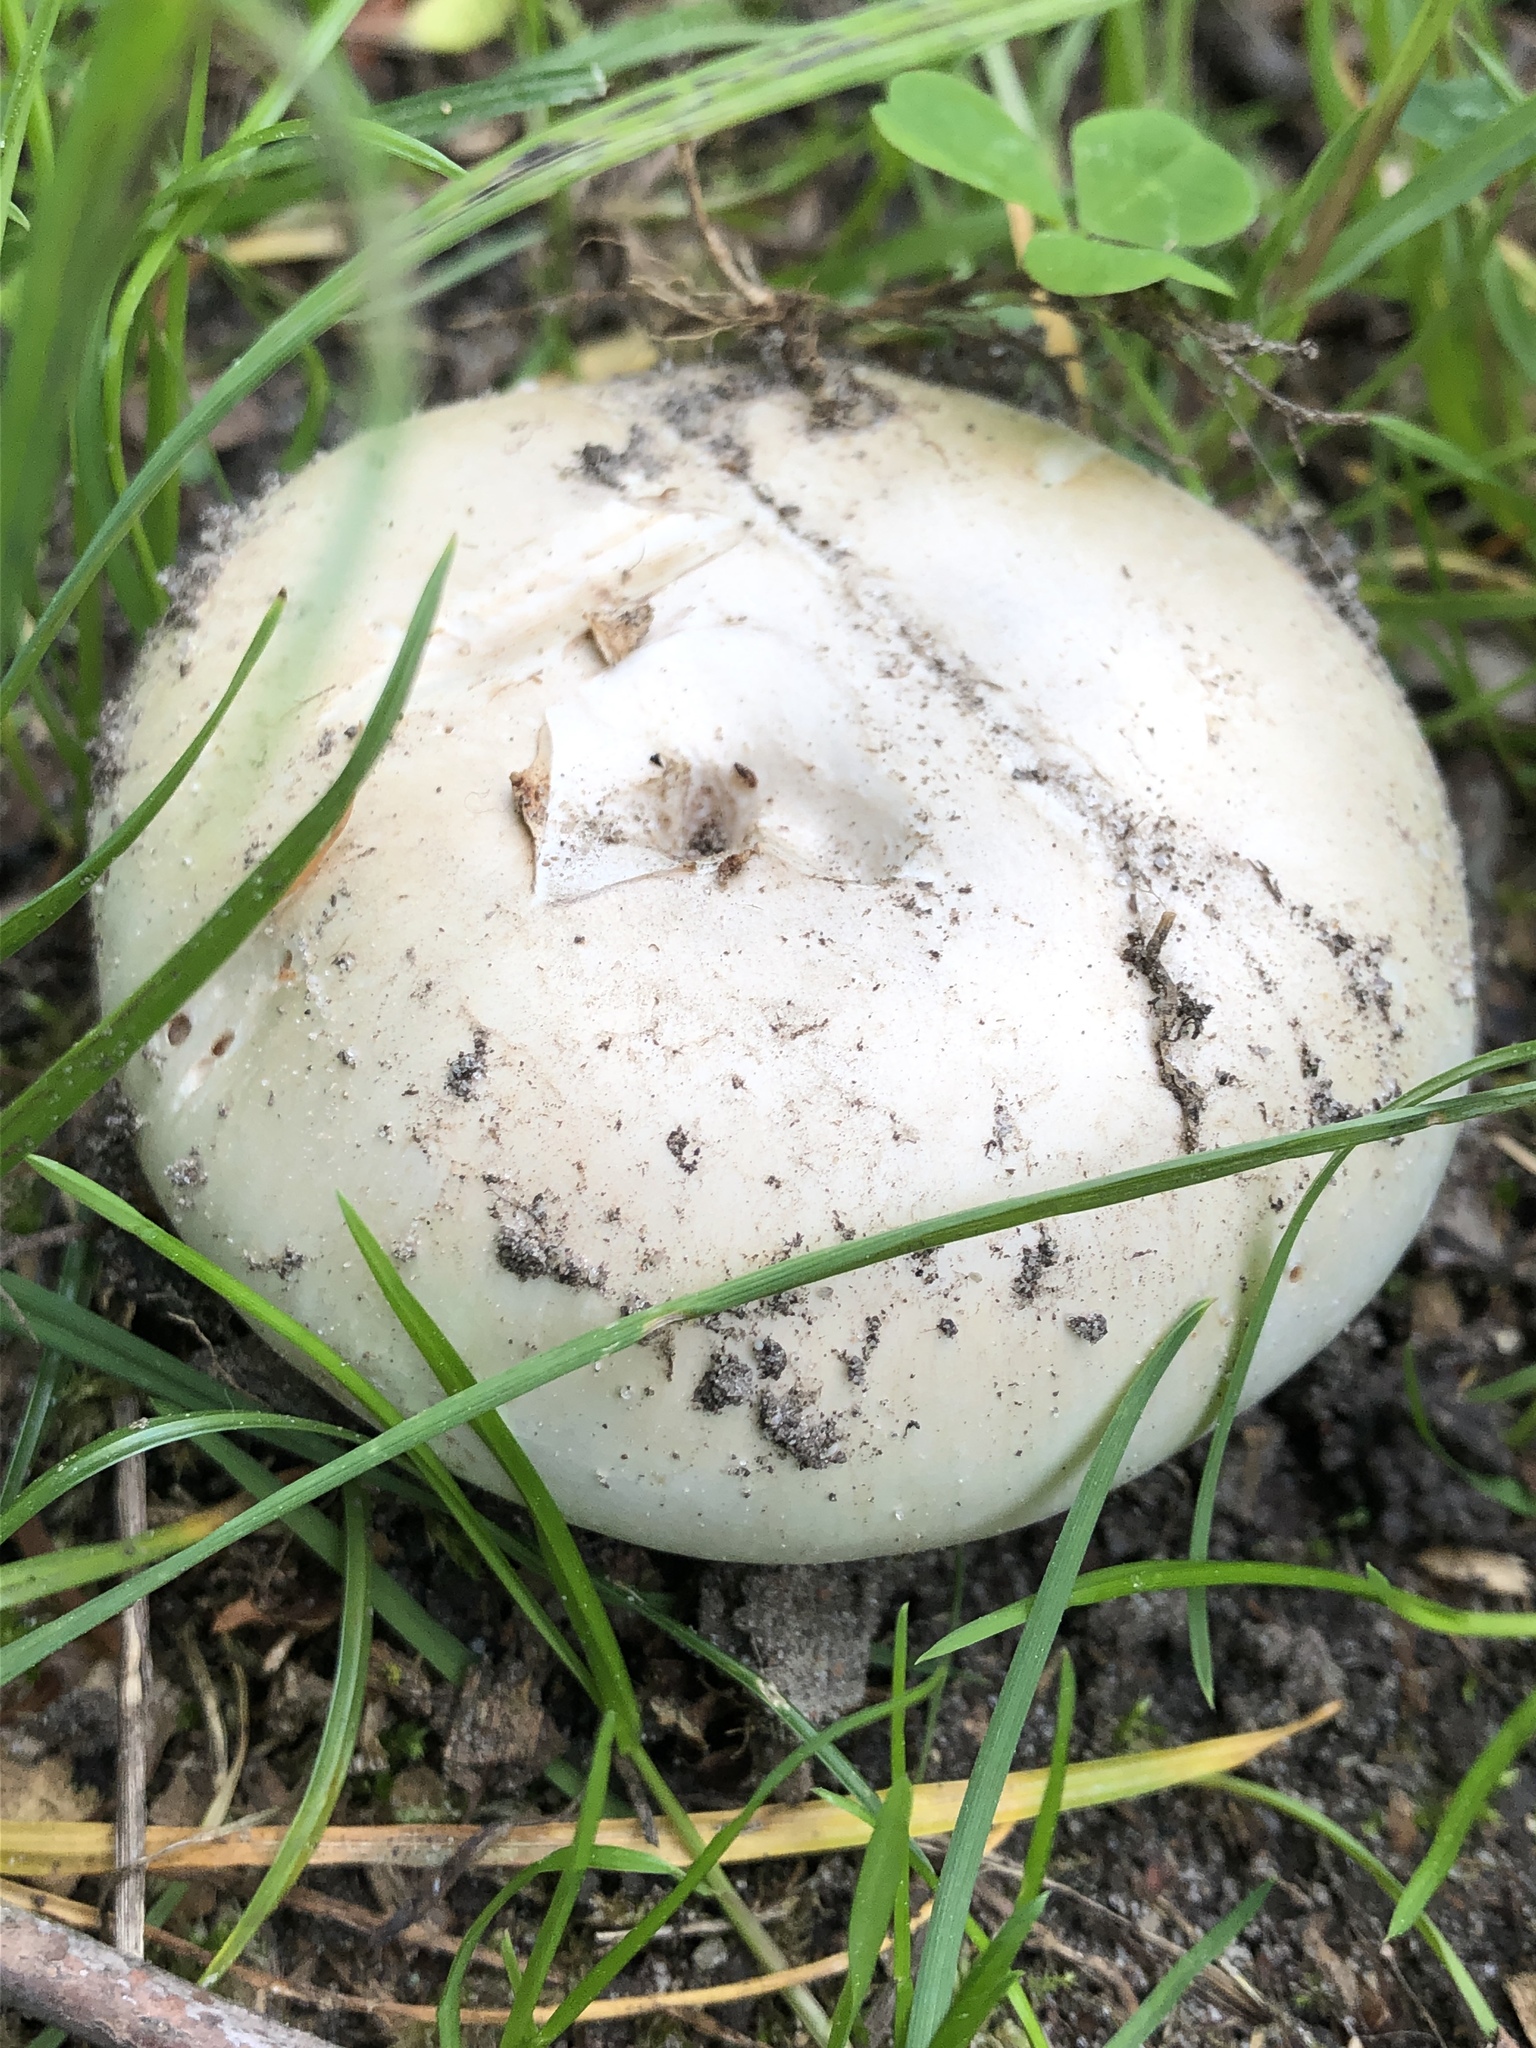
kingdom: Fungi
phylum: Basidiomycota
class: Agaricomycetes
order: Agaricales
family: Agaricaceae
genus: Agaricus
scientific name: Agaricus campestris
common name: Field mushroom
